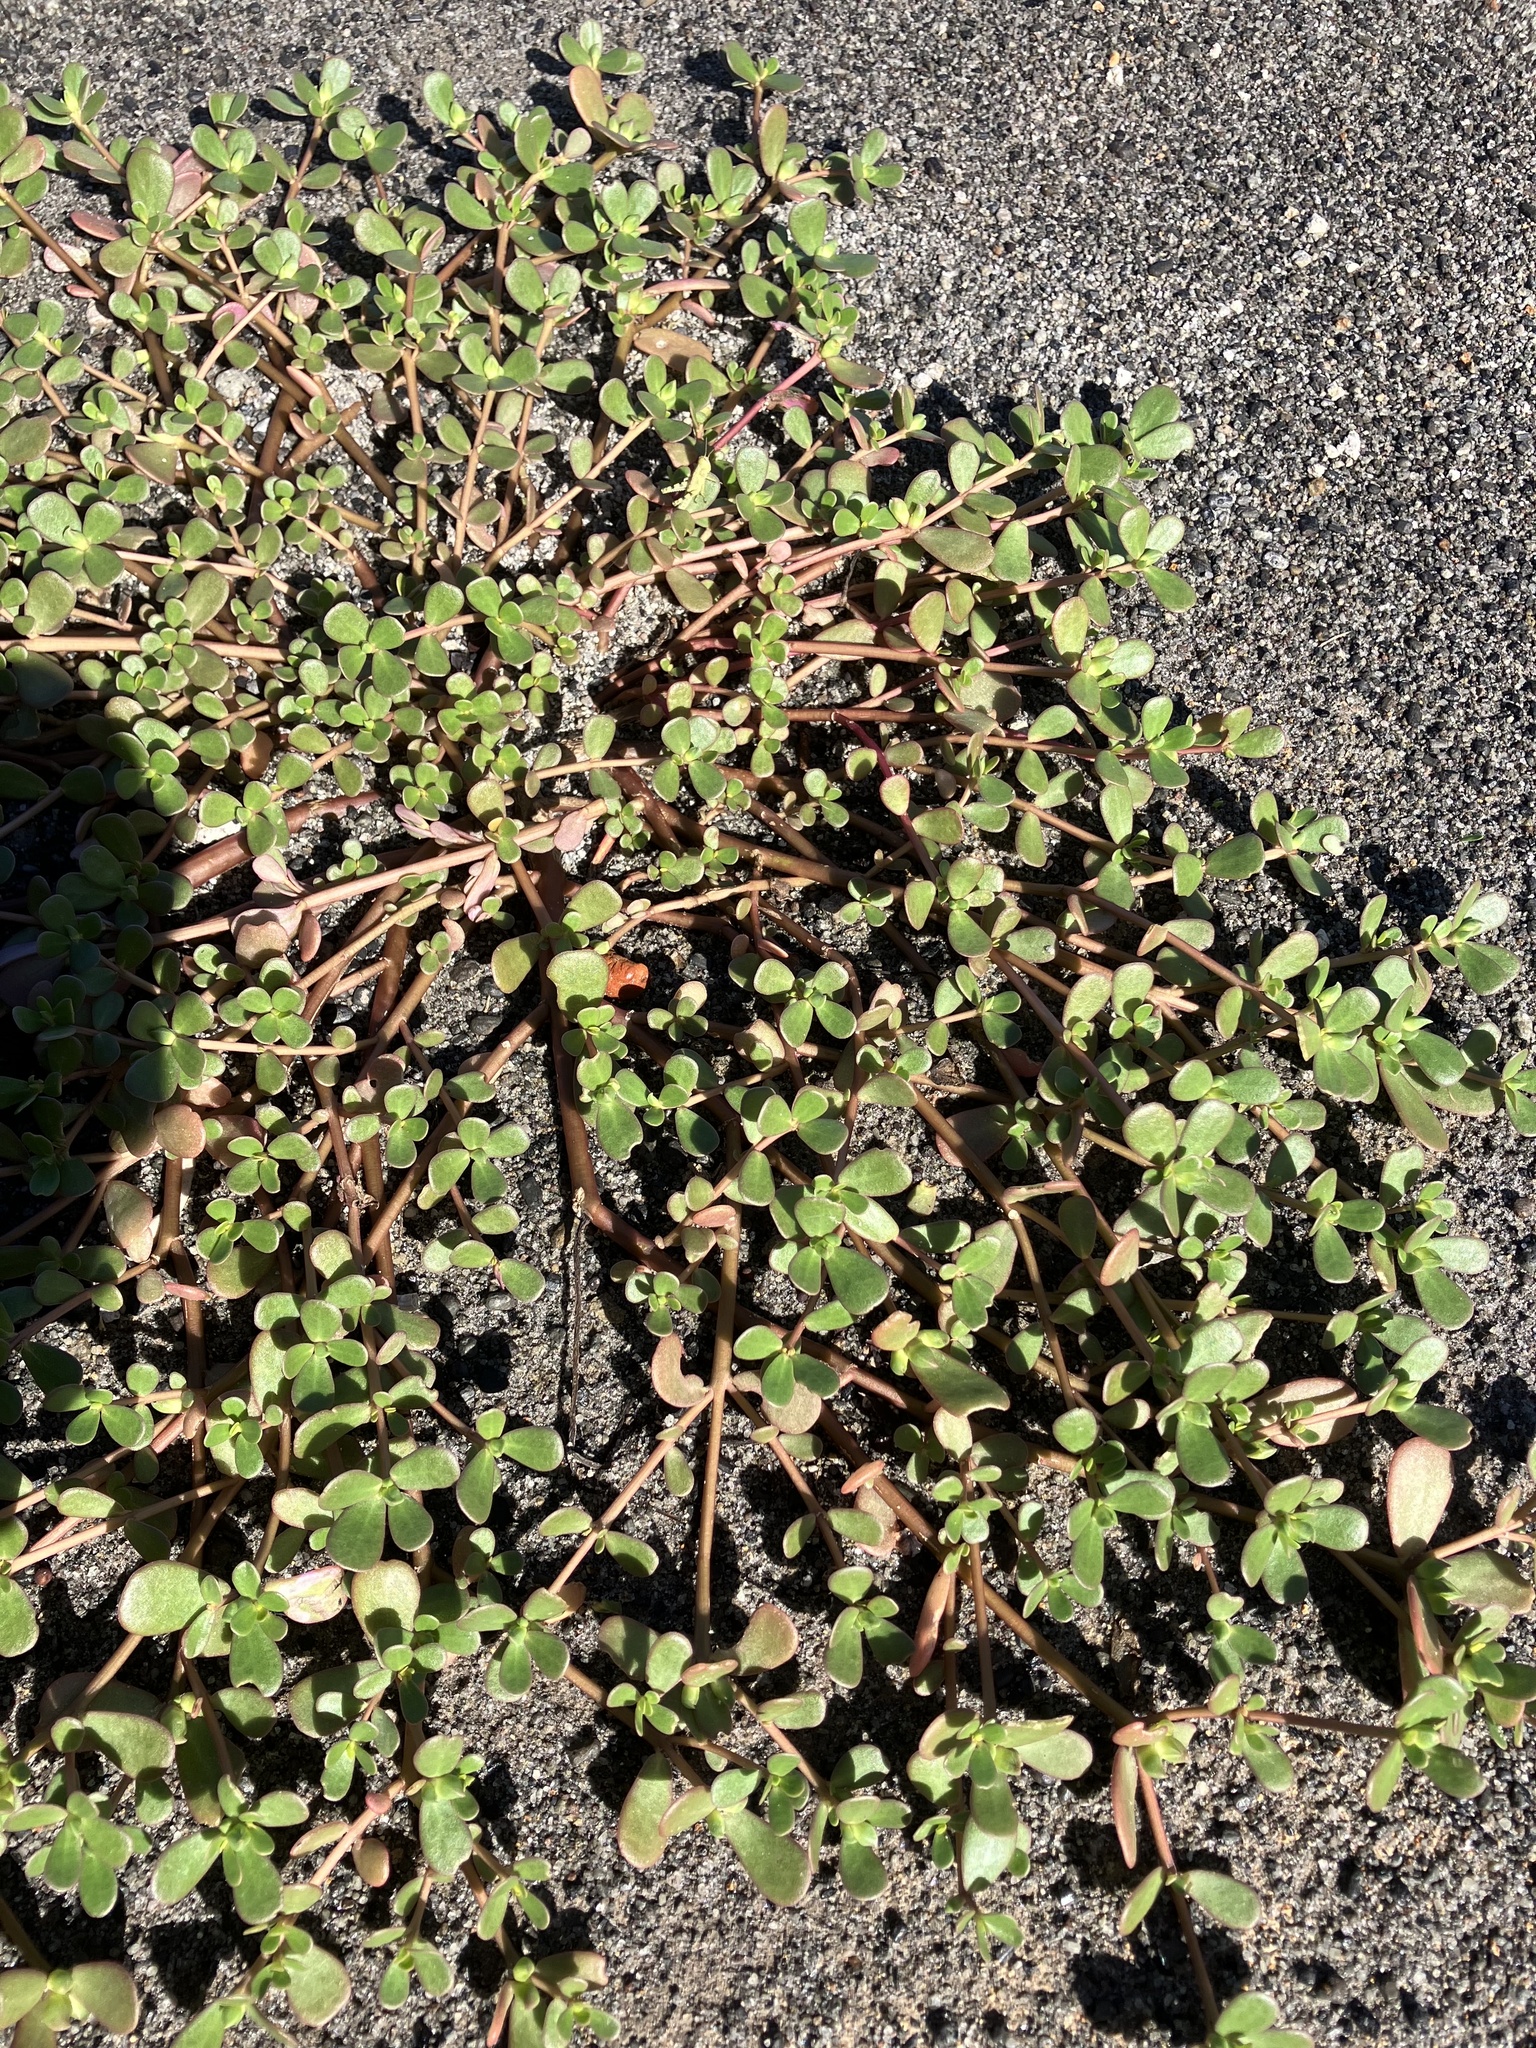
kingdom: Plantae
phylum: Tracheophyta
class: Magnoliopsida
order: Caryophyllales
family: Portulacaceae
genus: Portulaca
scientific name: Portulaca oleracea
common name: Common purslane
